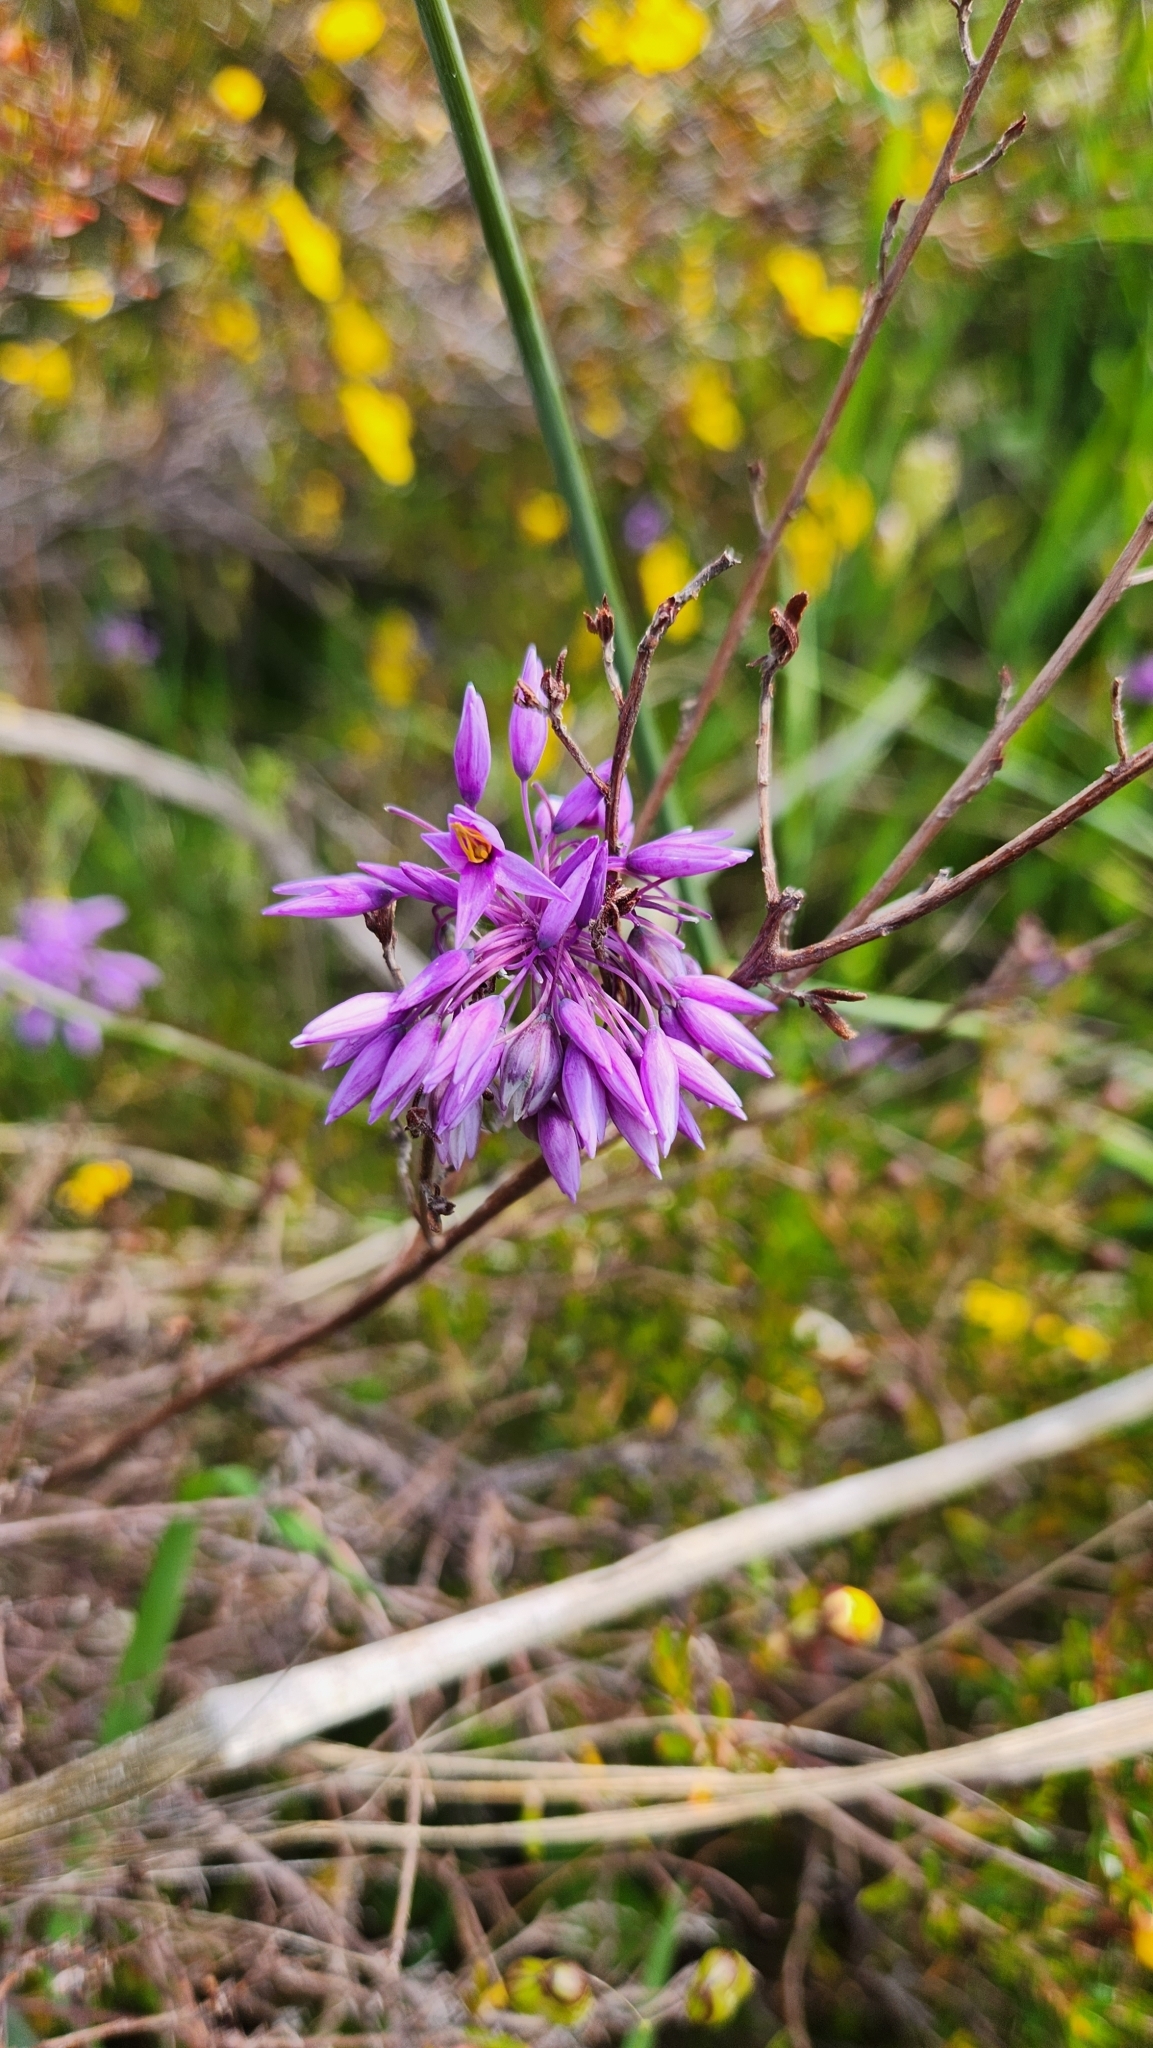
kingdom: Plantae
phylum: Tracheophyta
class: Liliopsida
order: Asparagales
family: Asparagaceae
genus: Sowerbaea
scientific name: Sowerbaea laxiflora
